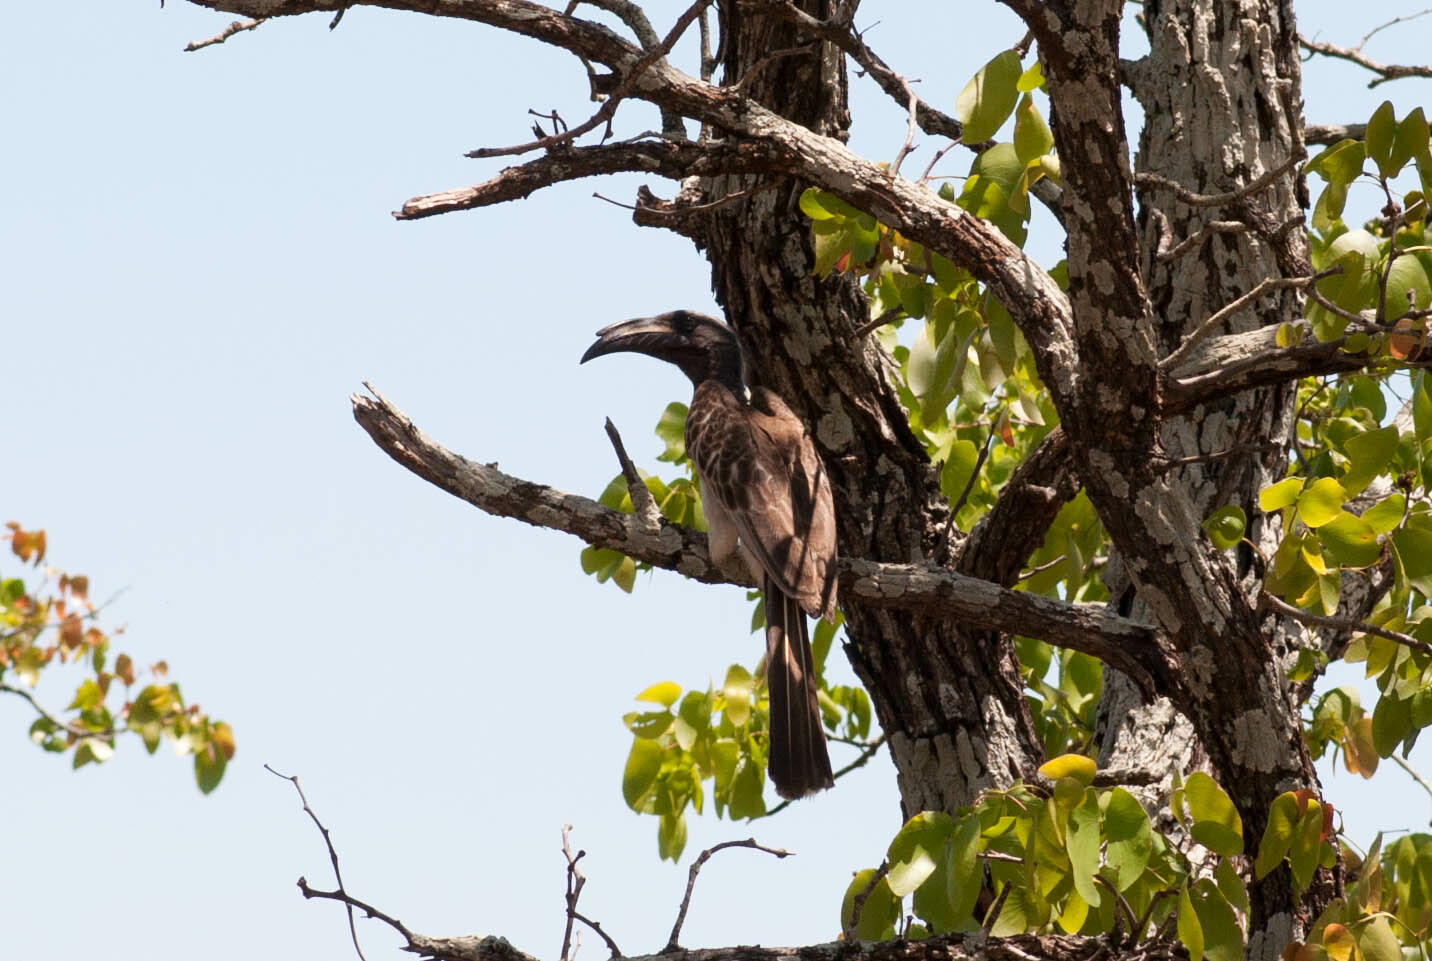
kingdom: Animalia
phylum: Chordata
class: Aves
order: Bucerotiformes
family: Bucerotidae
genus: Lophoceros
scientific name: Lophoceros nasutus
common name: African grey hornbill
